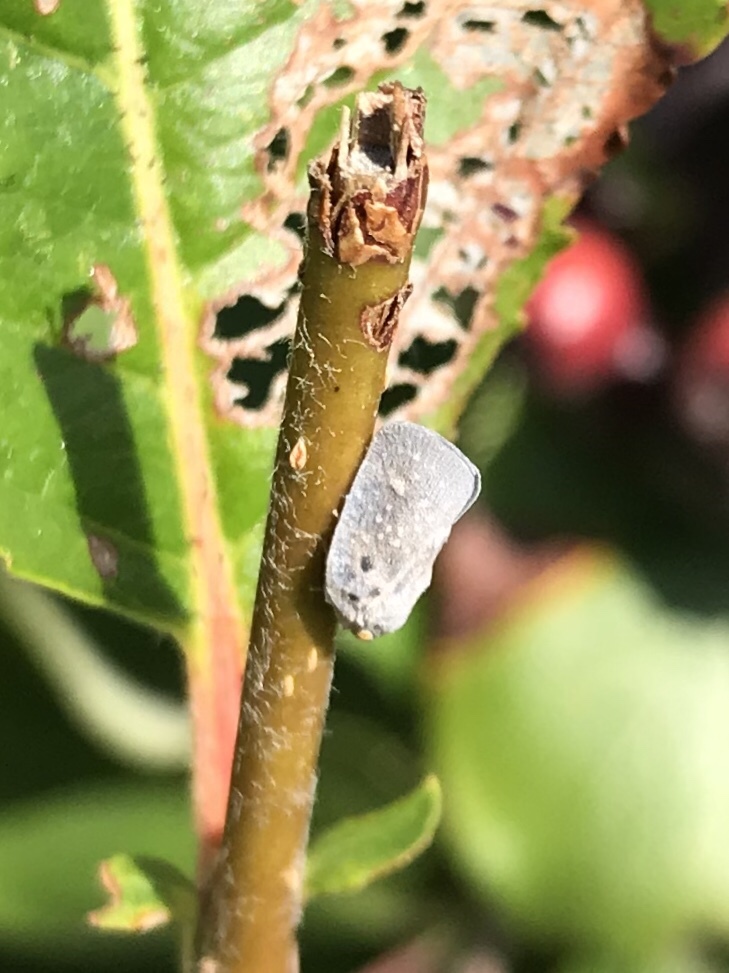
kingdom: Animalia
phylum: Arthropoda
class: Insecta
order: Hemiptera
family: Flatidae
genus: Metcalfa
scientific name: Metcalfa pruinosa
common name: Citrus flatid planthopper
